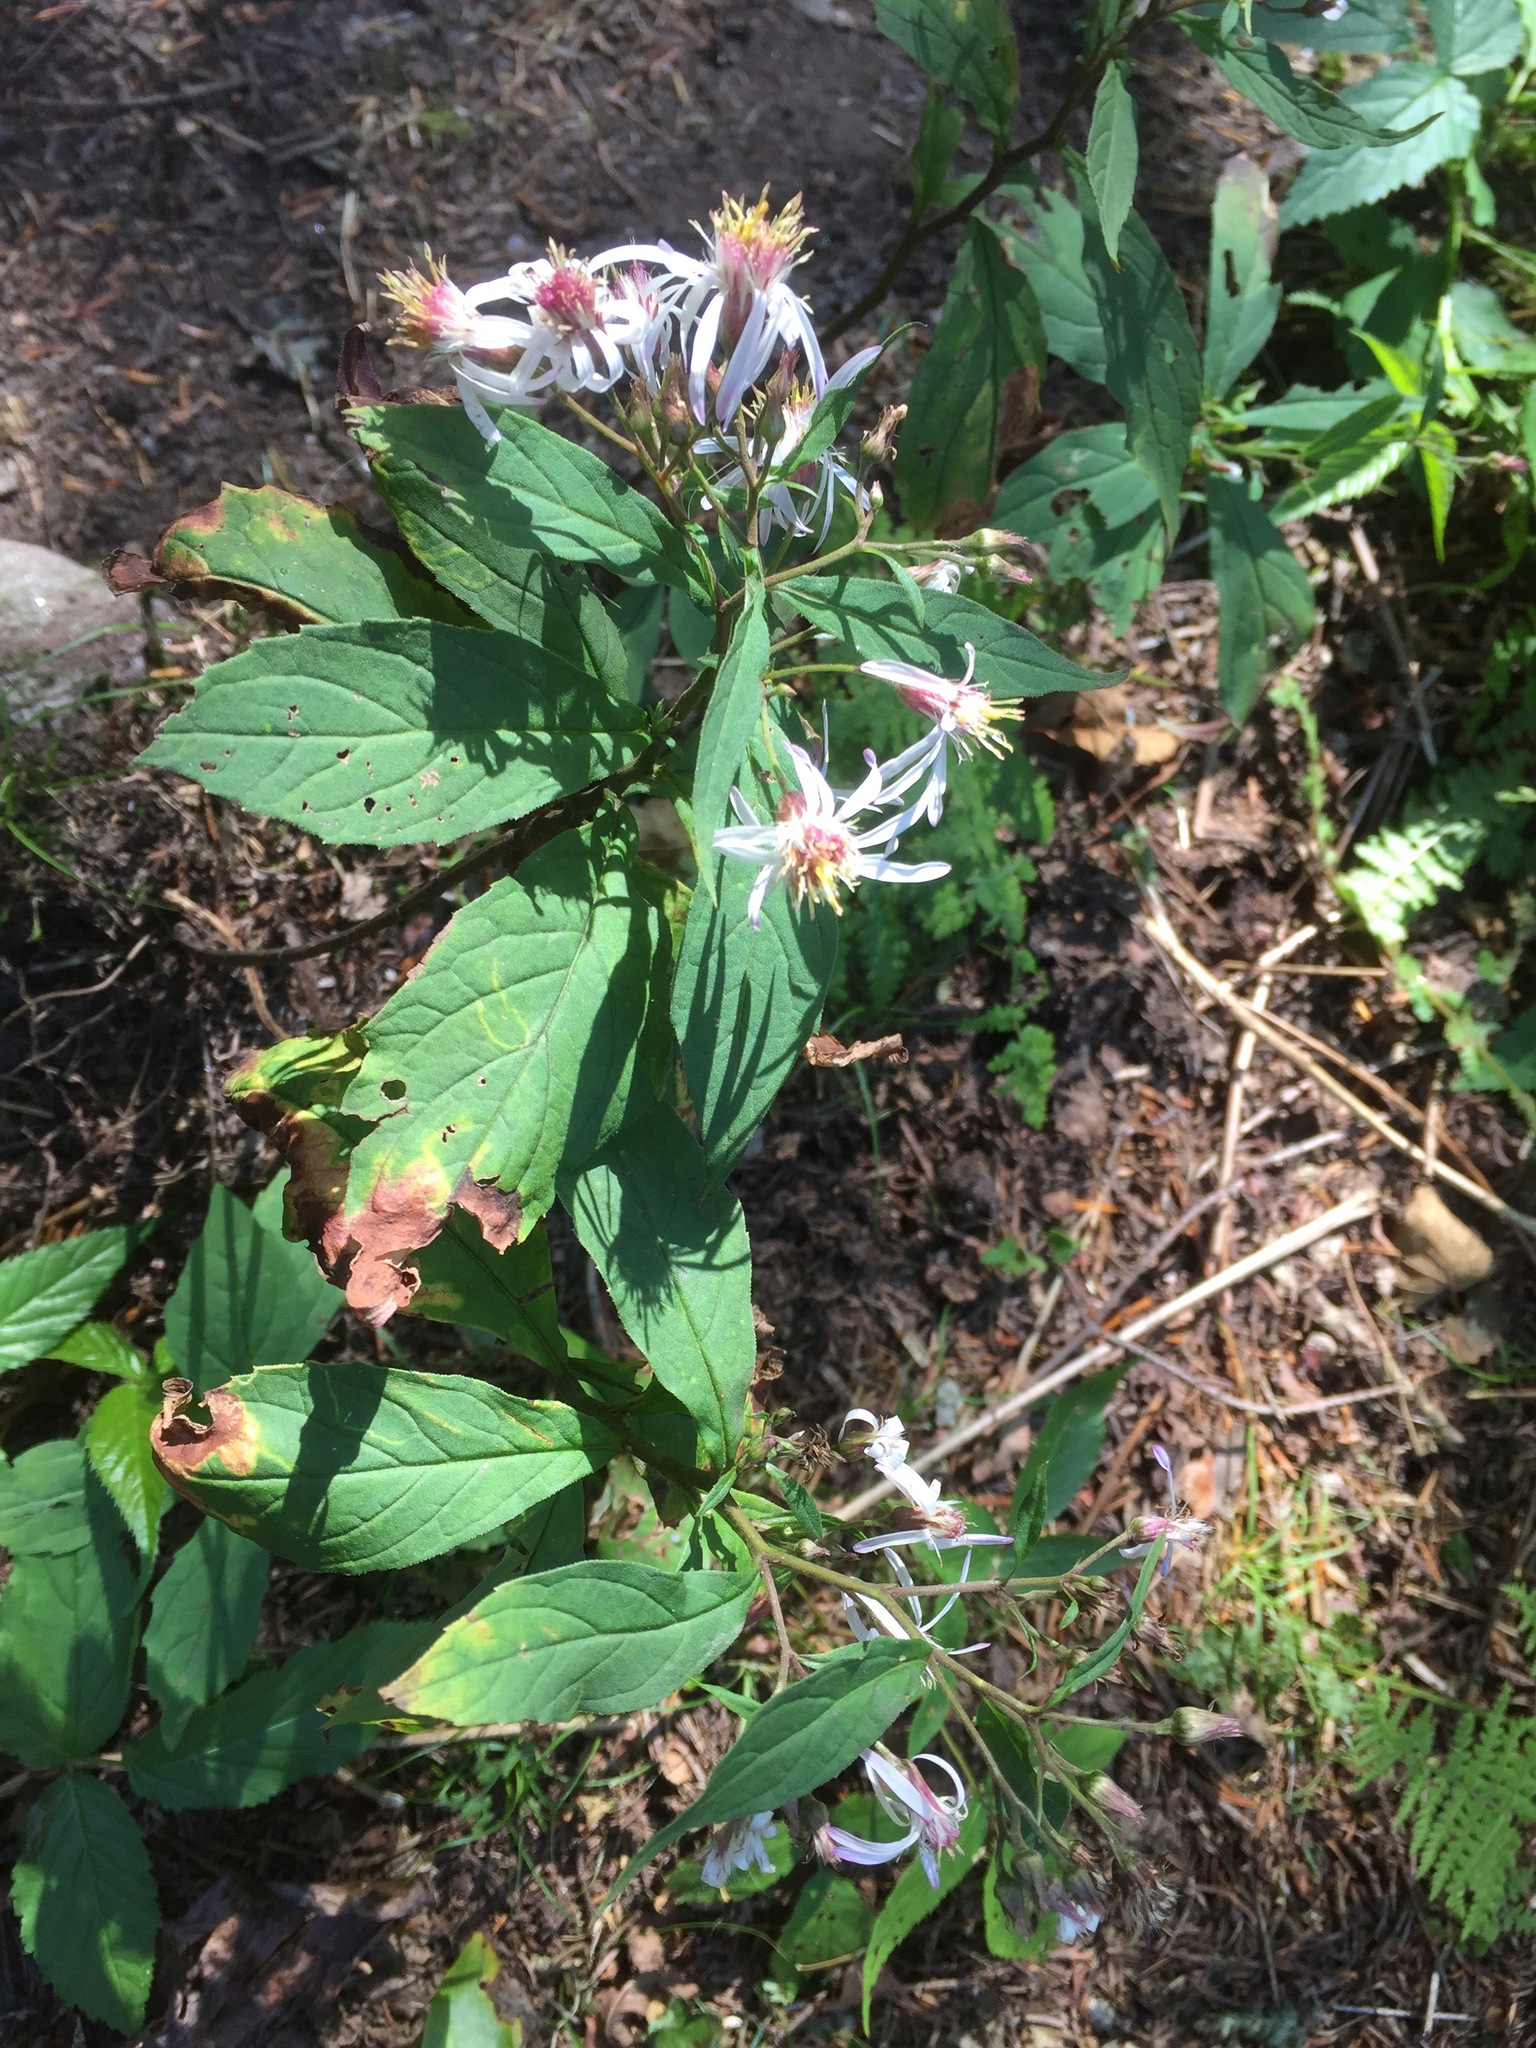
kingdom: Plantae
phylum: Tracheophyta
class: Magnoliopsida
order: Asterales
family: Asteraceae
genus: Oclemena
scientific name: Oclemena acuminata
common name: Mountain aster
